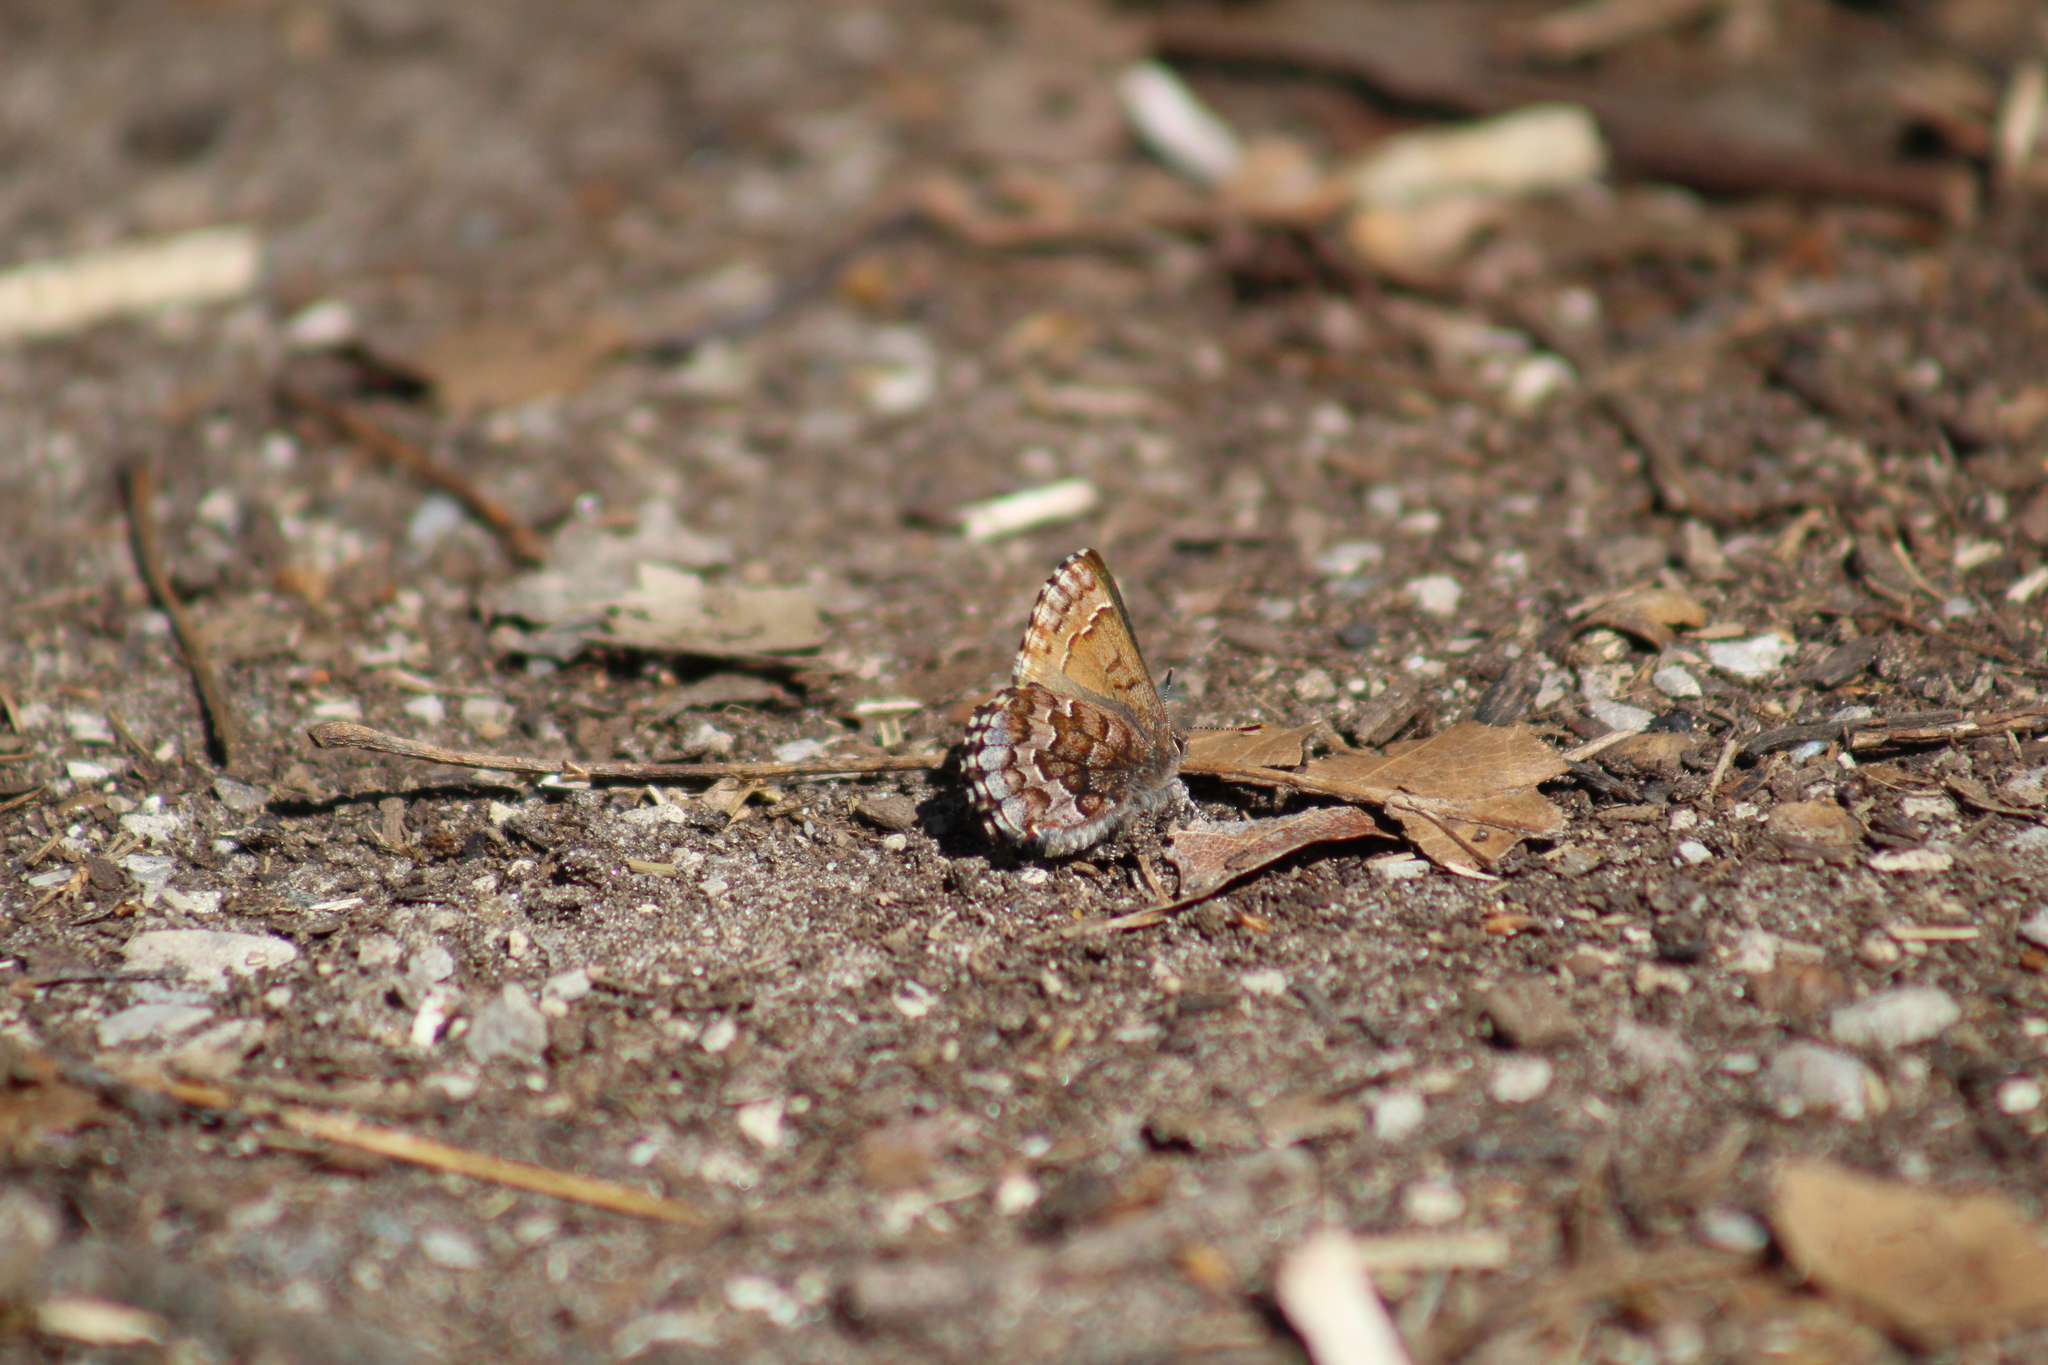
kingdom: Animalia
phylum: Arthropoda
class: Insecta
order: Lepidoptera
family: Lycaenidae
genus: Incisalia
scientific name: Incisalia niphon
